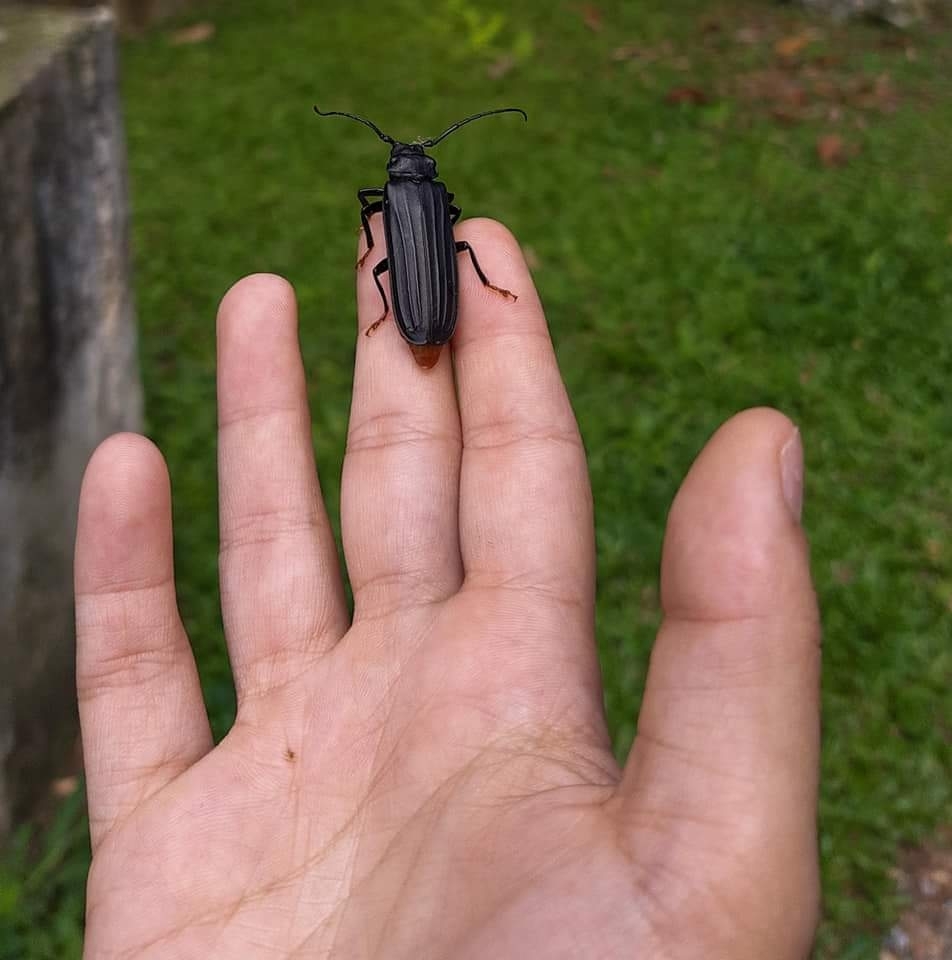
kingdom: Animalia
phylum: Arthropoda
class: Insecta
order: Coleoptera
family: Cerambycidae
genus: Chorenta
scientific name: Chorenta reticulata
